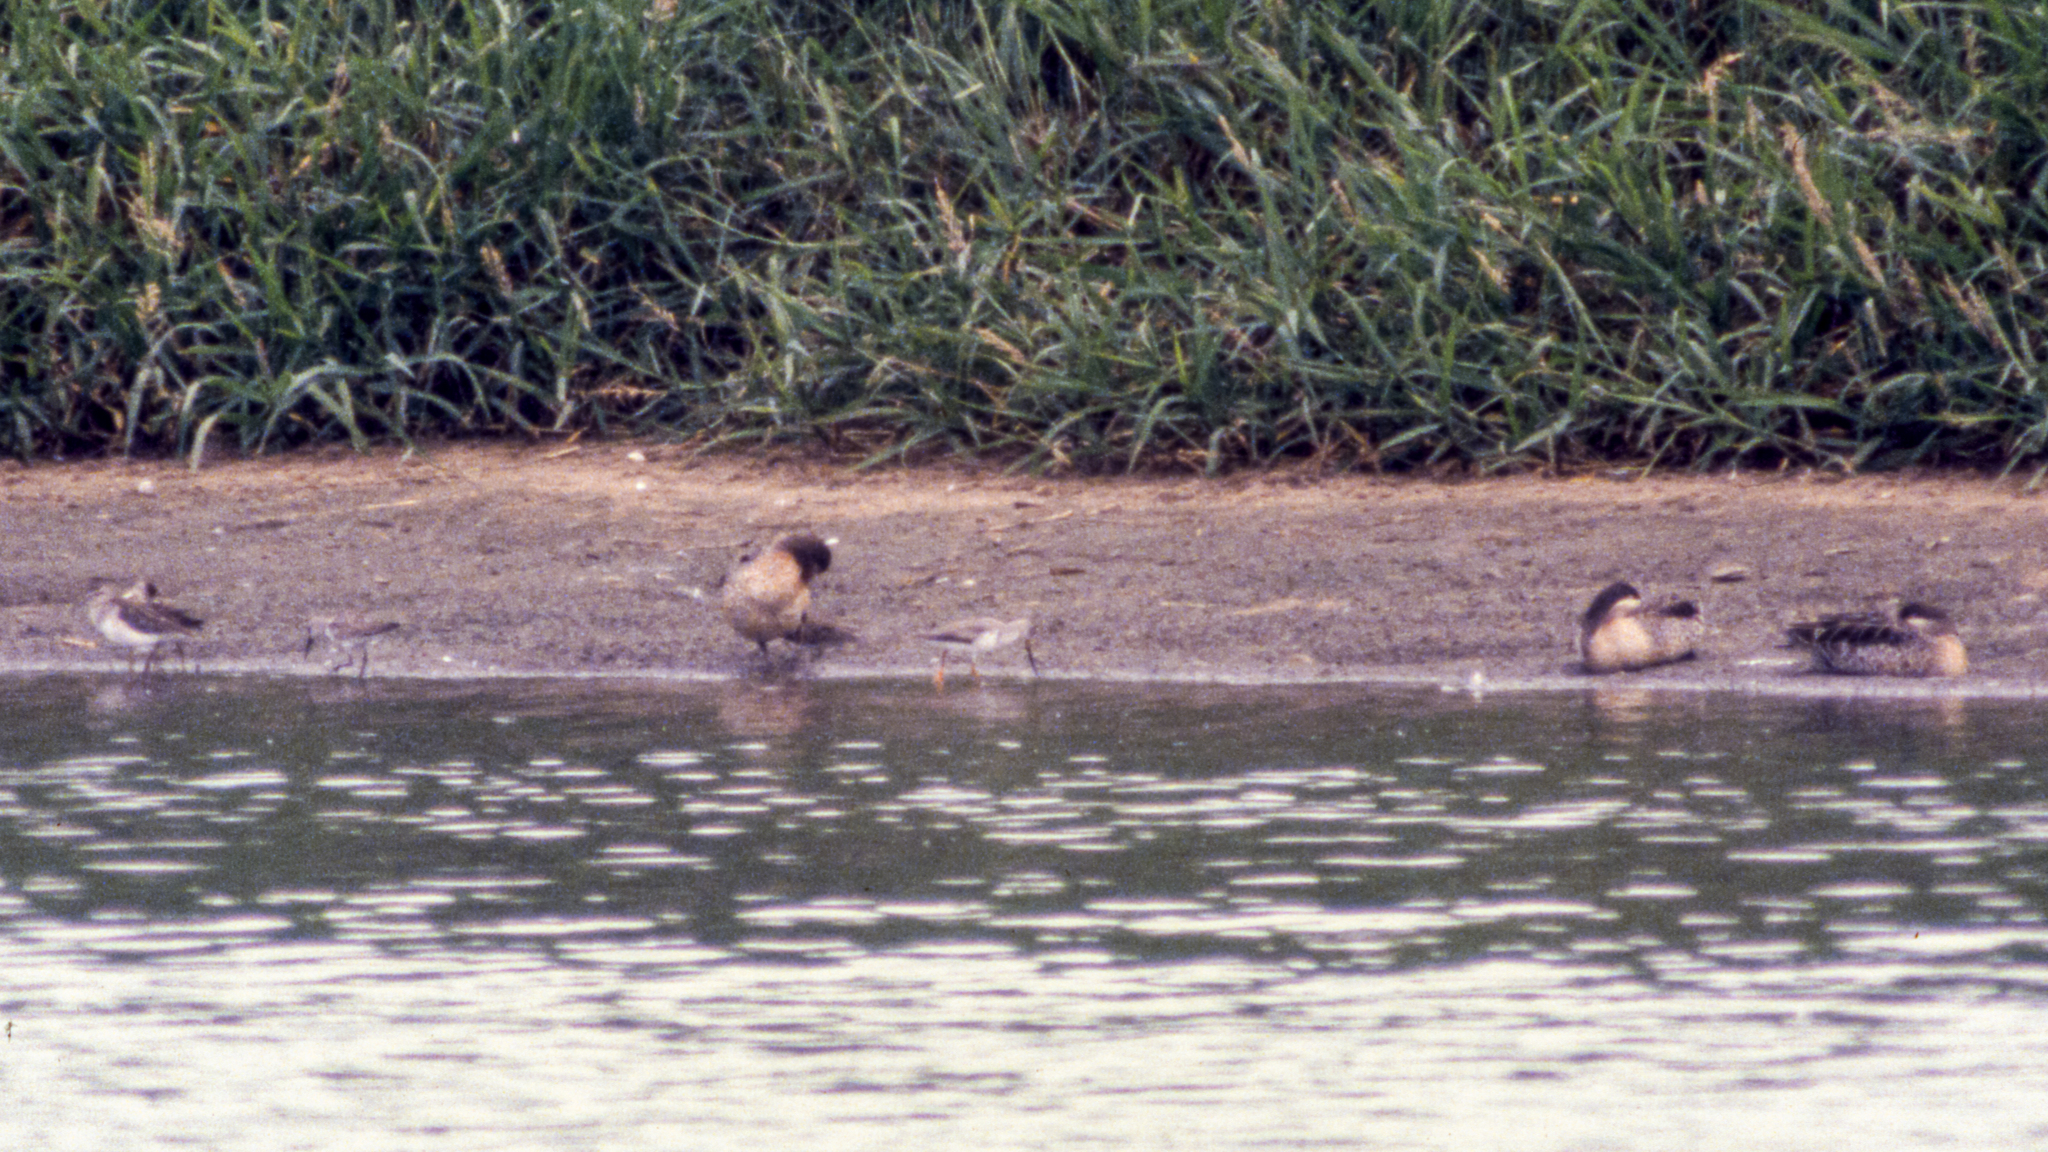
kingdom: Animalia
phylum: Chordata
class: Aves
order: Anseriformes
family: Anatidae
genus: Anas
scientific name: Anas erythrorhyncha
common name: Red-billed teal
